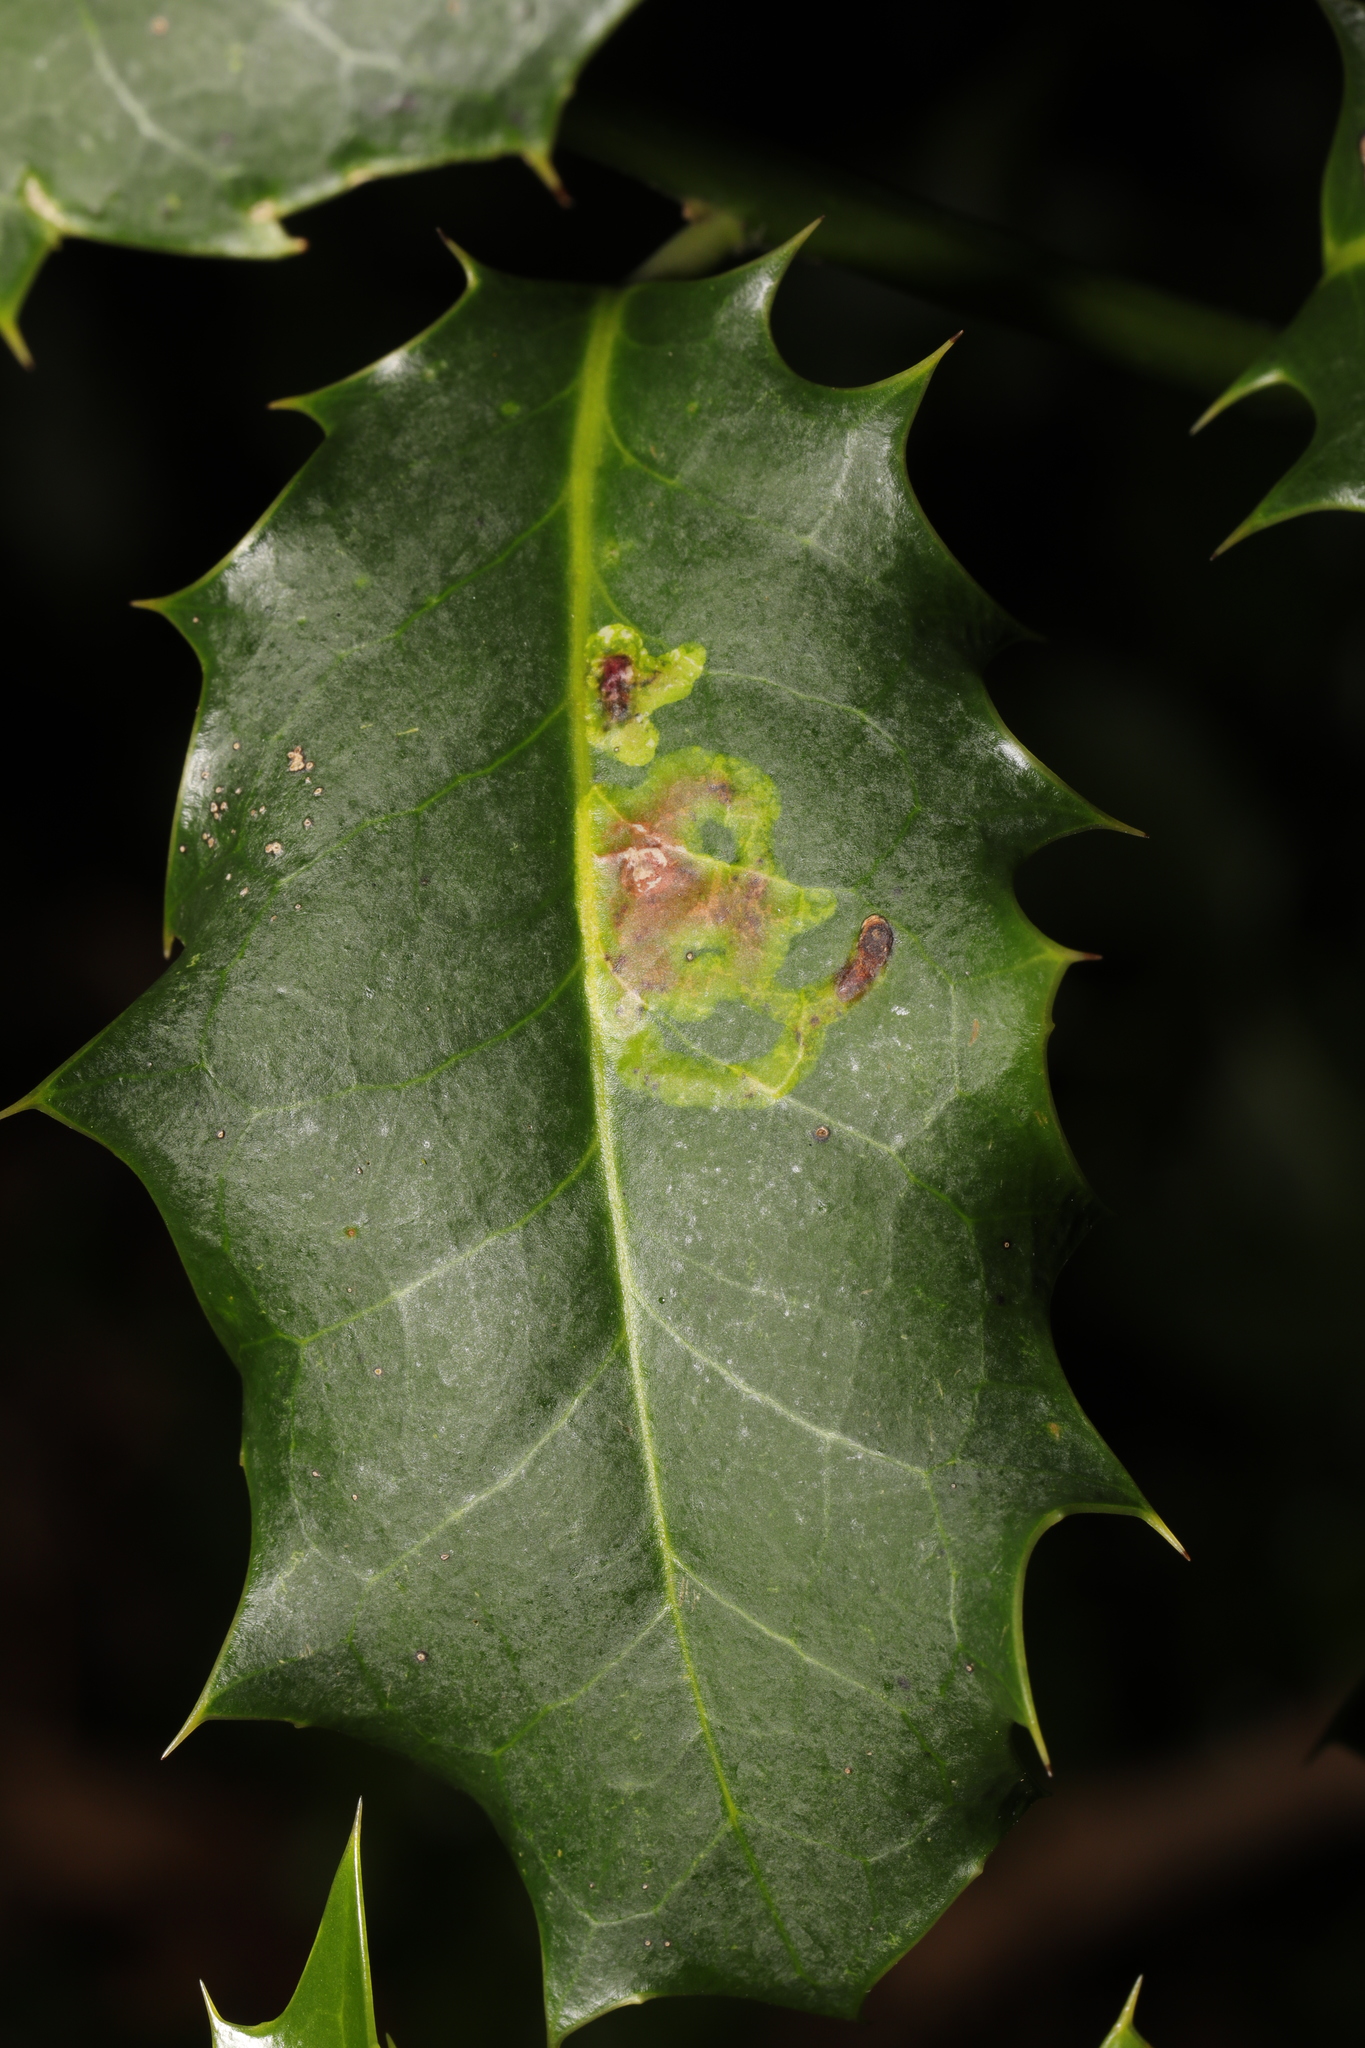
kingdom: Animalia
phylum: Arthropoda
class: Insecta
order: Diptera
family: Agromyzidae
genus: Phytomyza
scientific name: Phytomyza ilicis
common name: Holly leafminer
